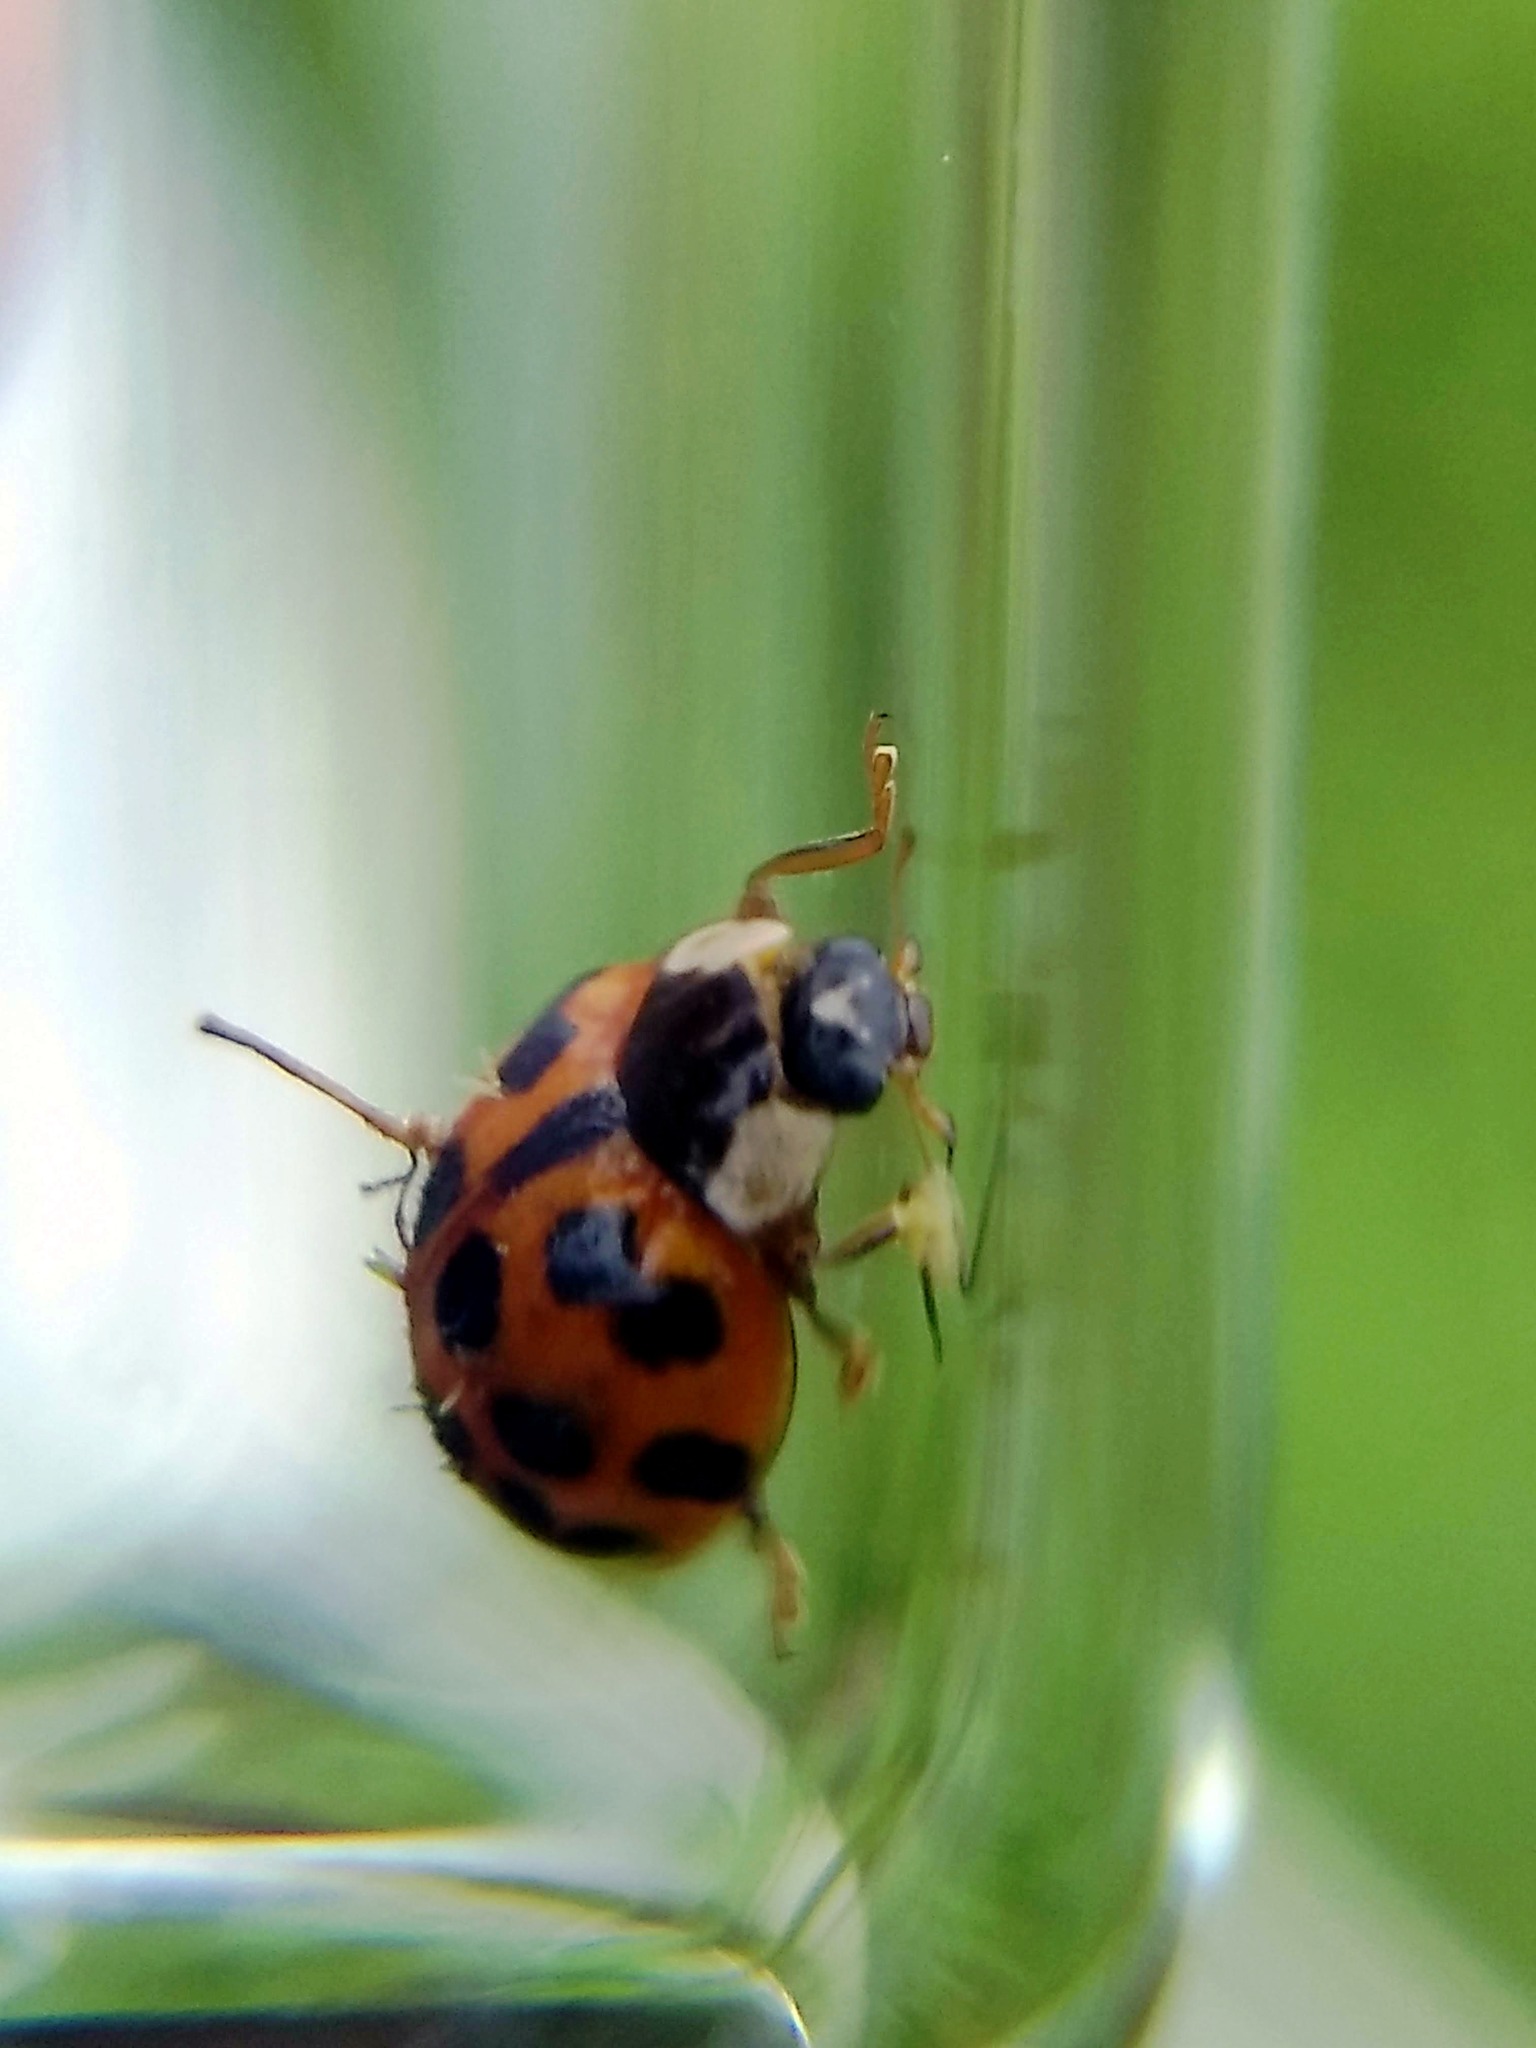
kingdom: Animalia
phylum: Arthropoda
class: Insecta
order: Coleoptera
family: Coccinellidae
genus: Harmonia
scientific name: Harmonia axyridis
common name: Harlequin ladybird
